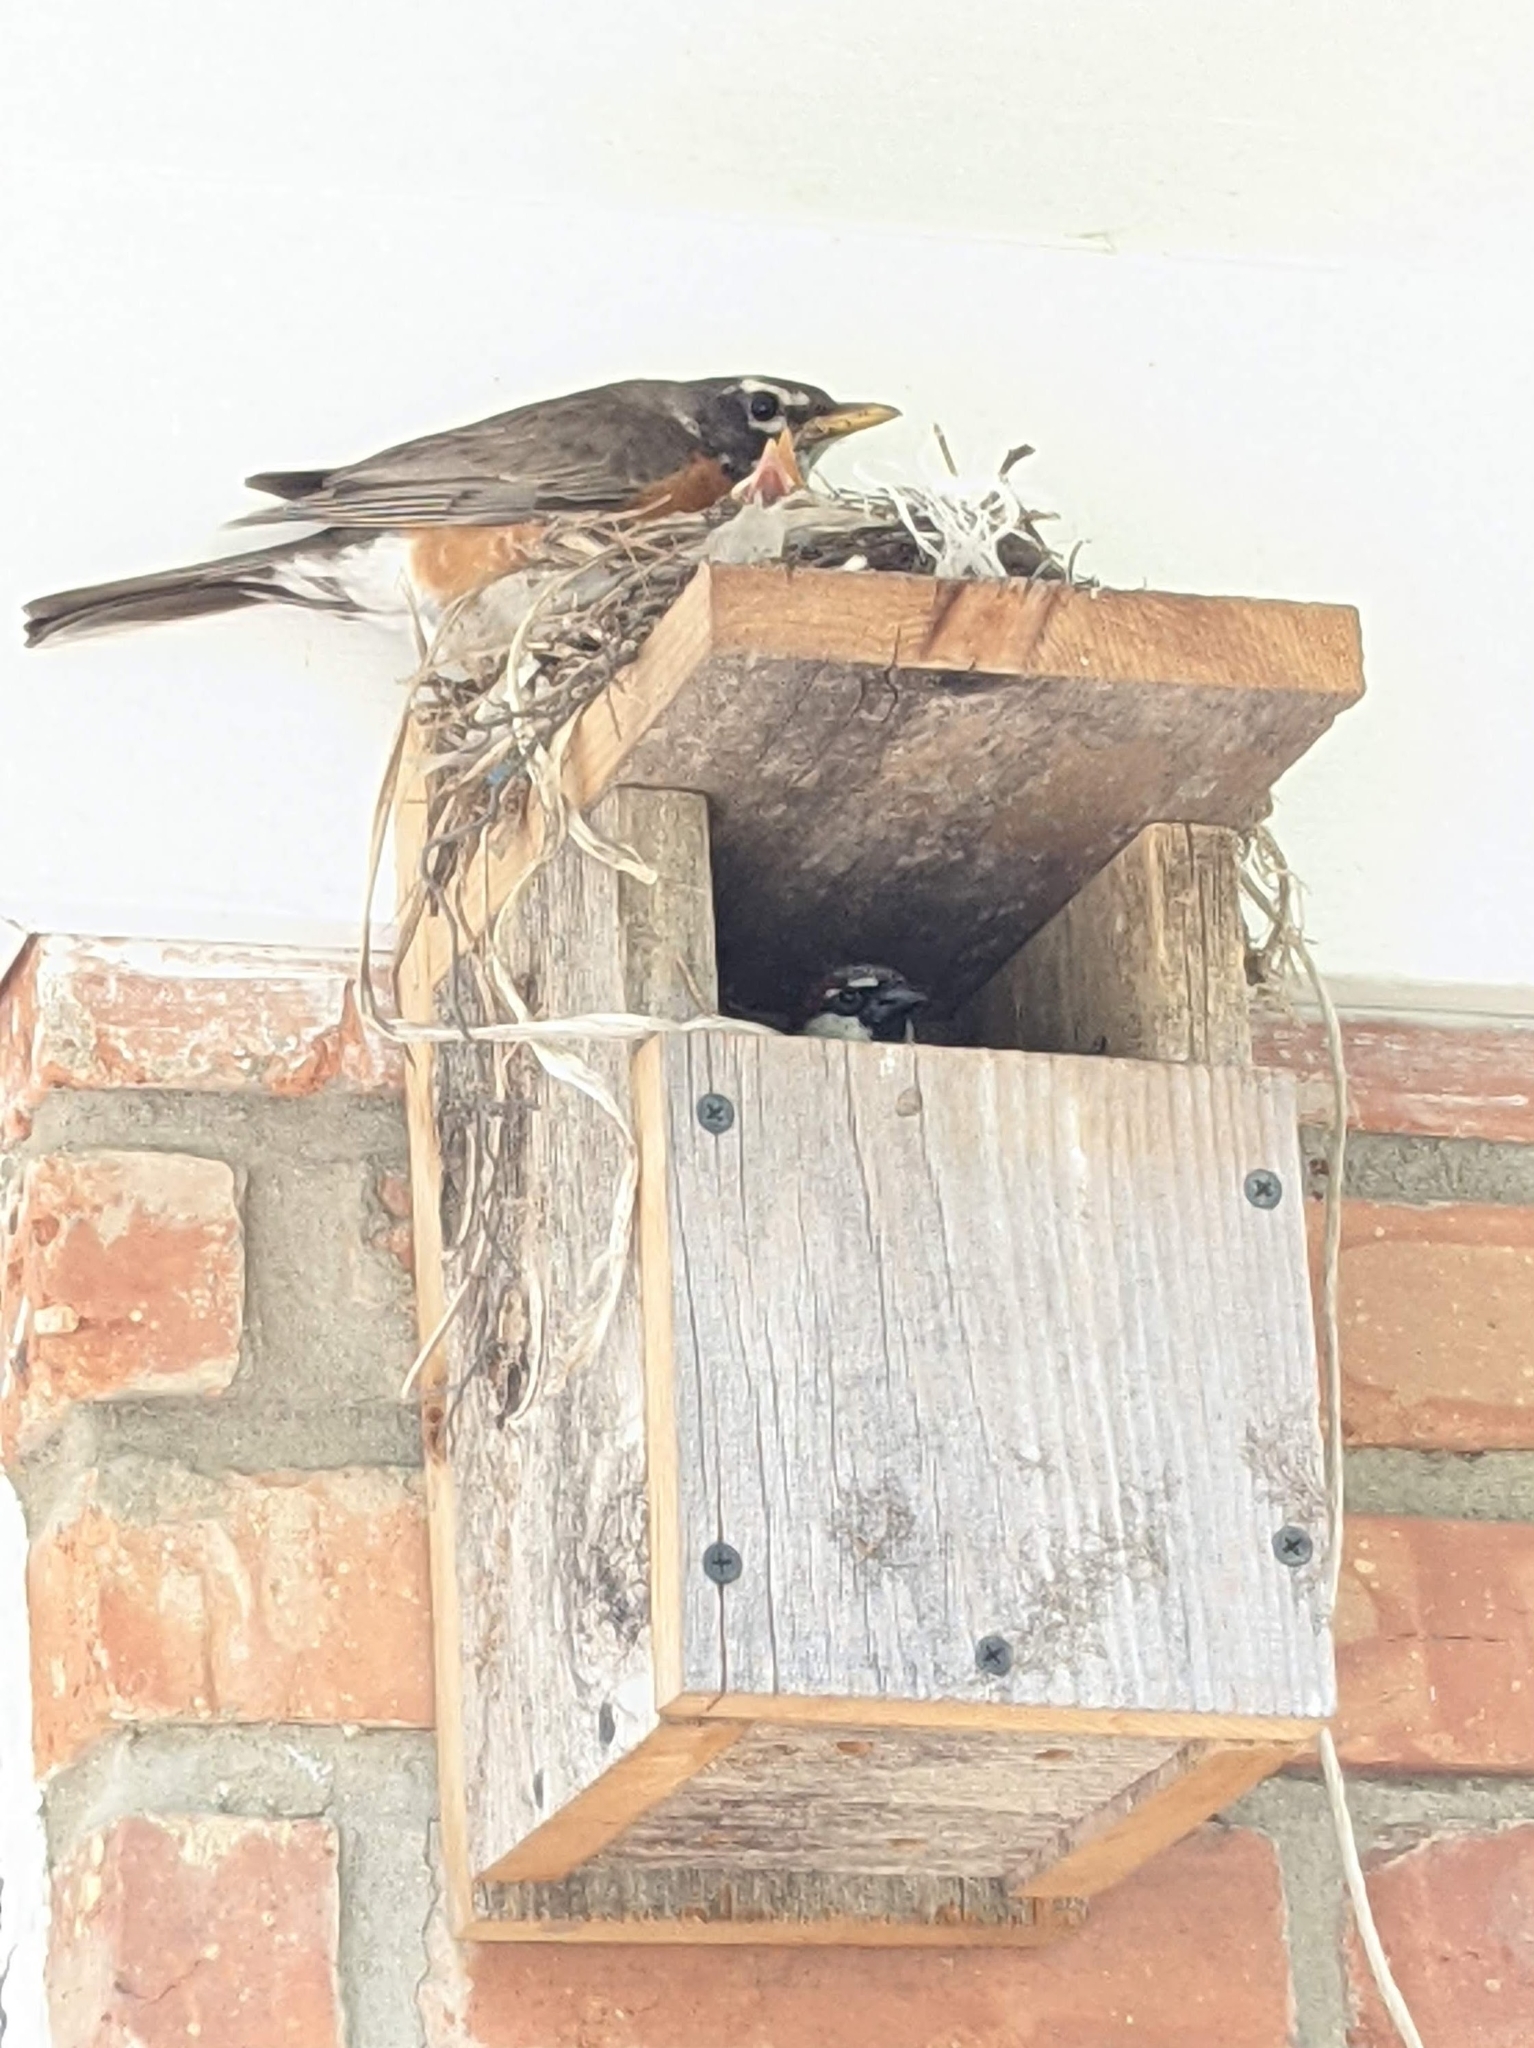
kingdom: Animalia
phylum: Chordata
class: Aves
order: Passeriformes
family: Passeridae
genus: Passer
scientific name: Passer domesticus
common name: House sparrow
